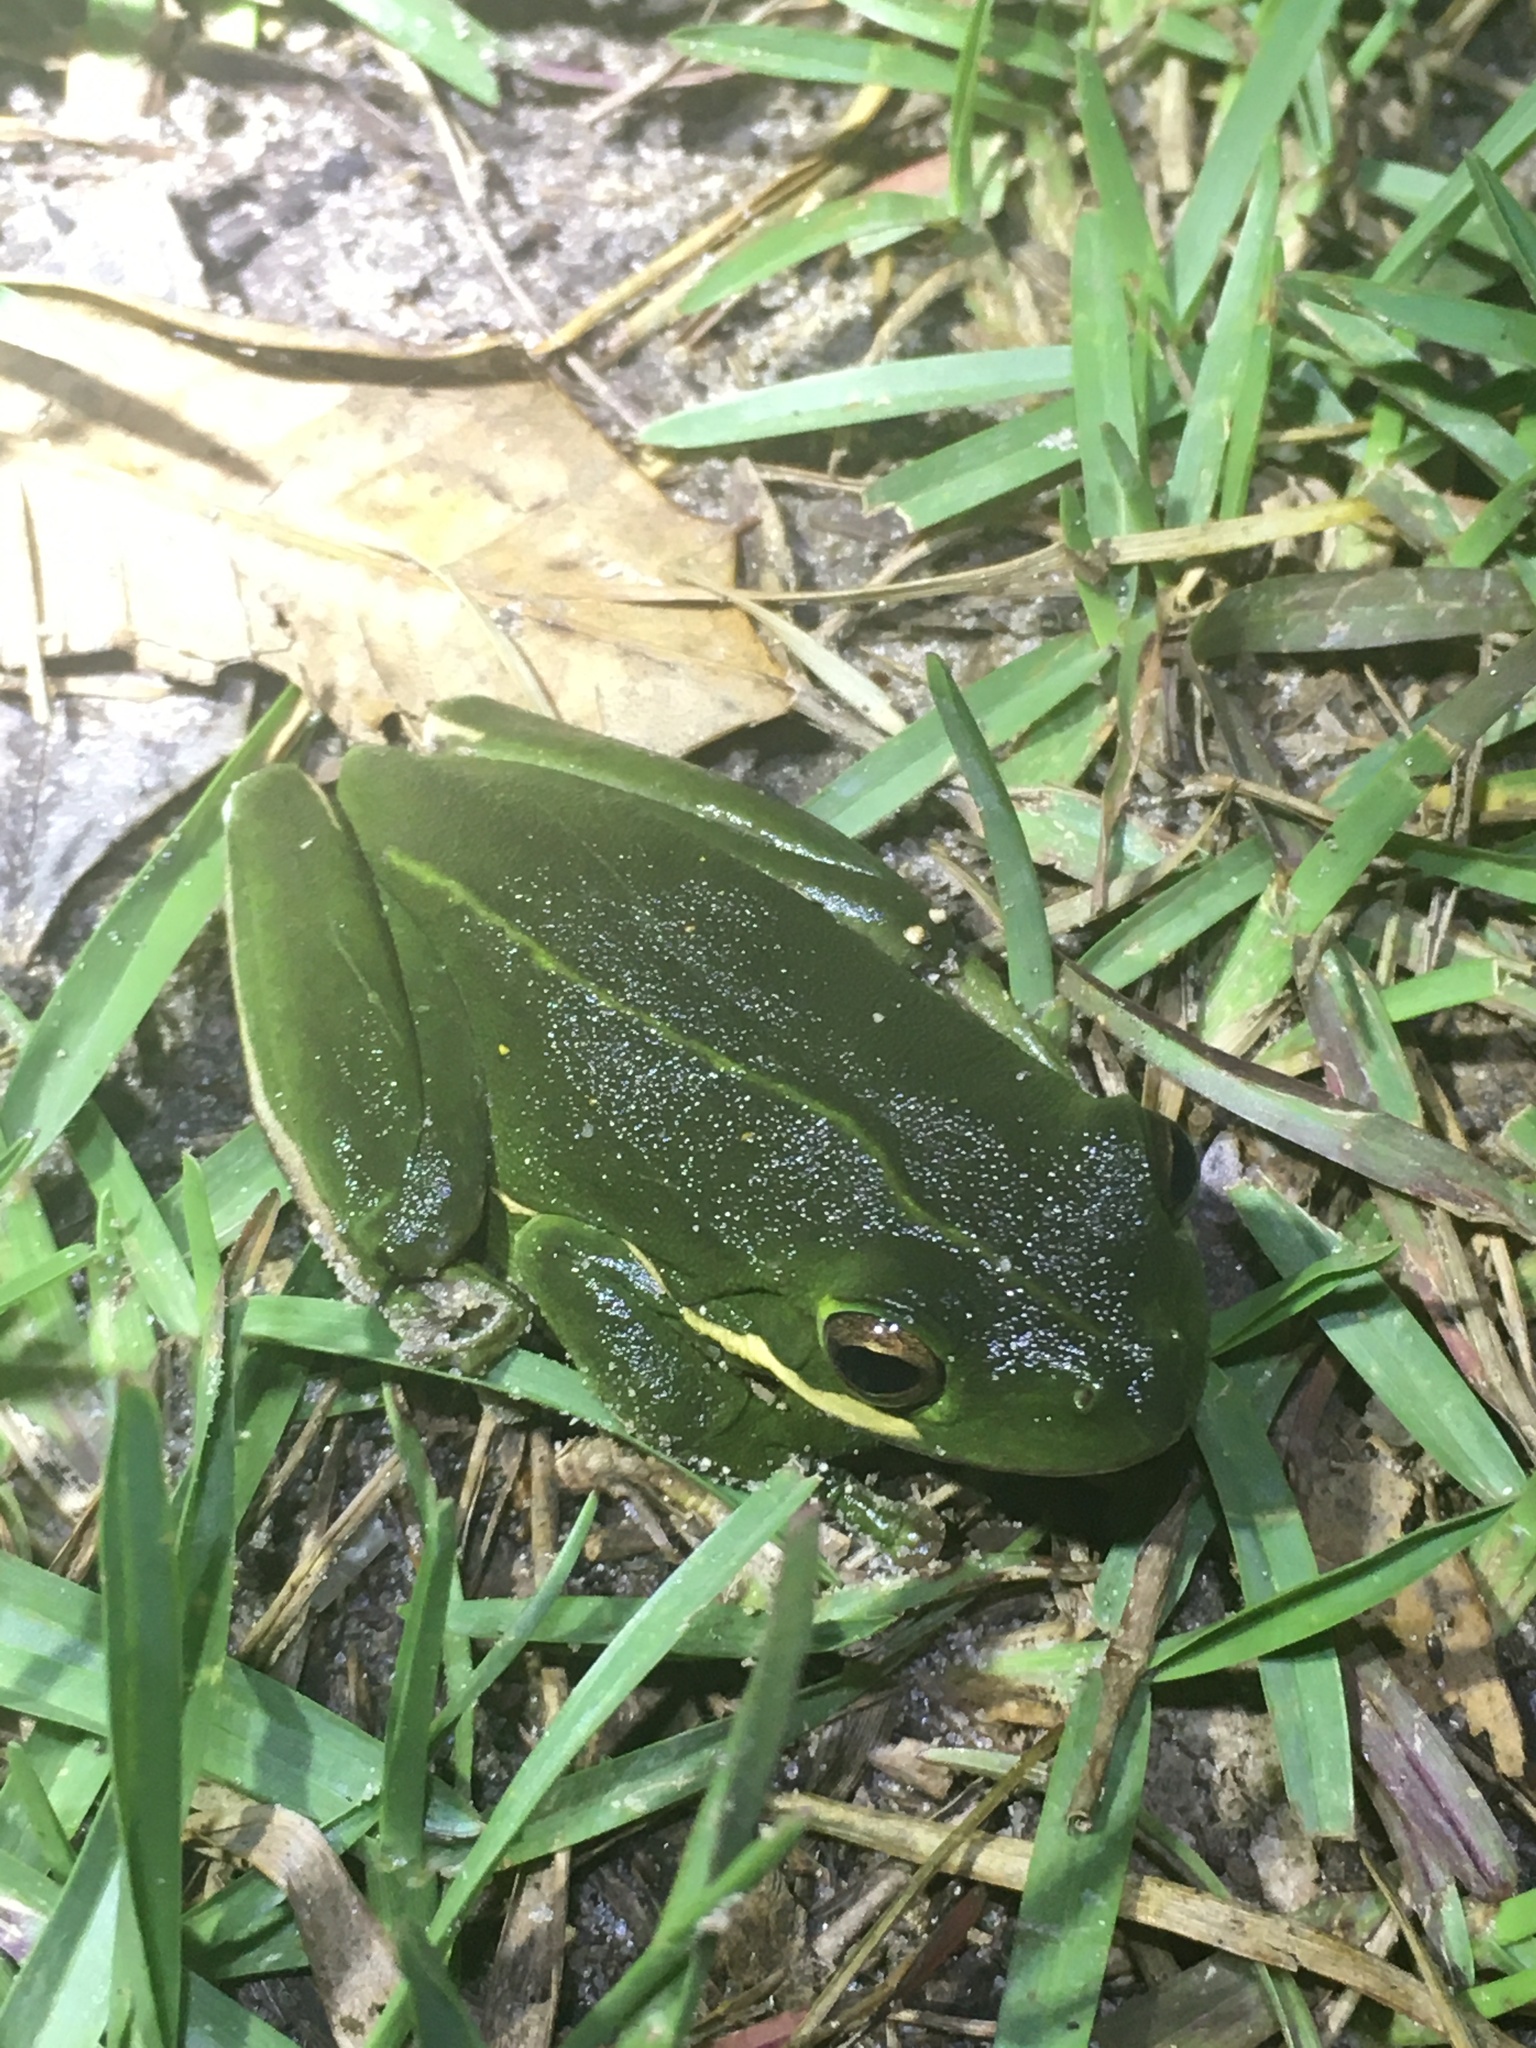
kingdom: Animalia
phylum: Chordata
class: Amphibia
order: Anura
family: Hylidae
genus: Dryophytes
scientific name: Dryophytes cinereus
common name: Green treefrog
